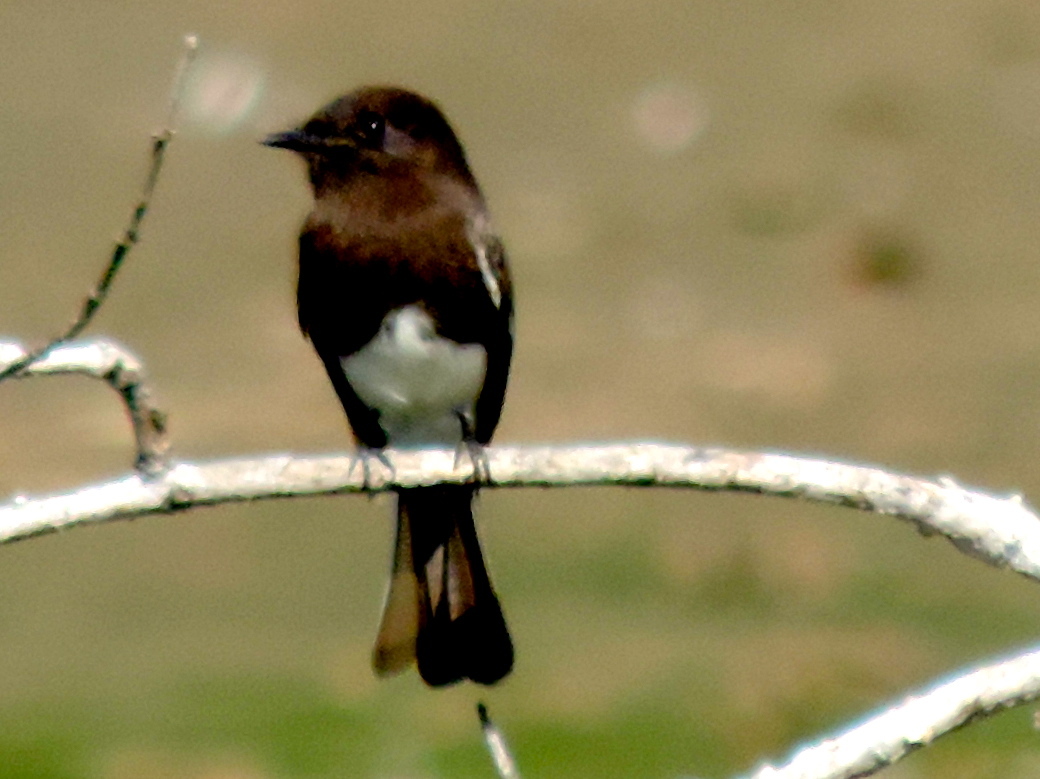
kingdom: Animalia
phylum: Chordata
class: Aves
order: Passeriformes
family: Tyrannidae
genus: Sayornis
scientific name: Sayornis nigricans
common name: Black phoebe
